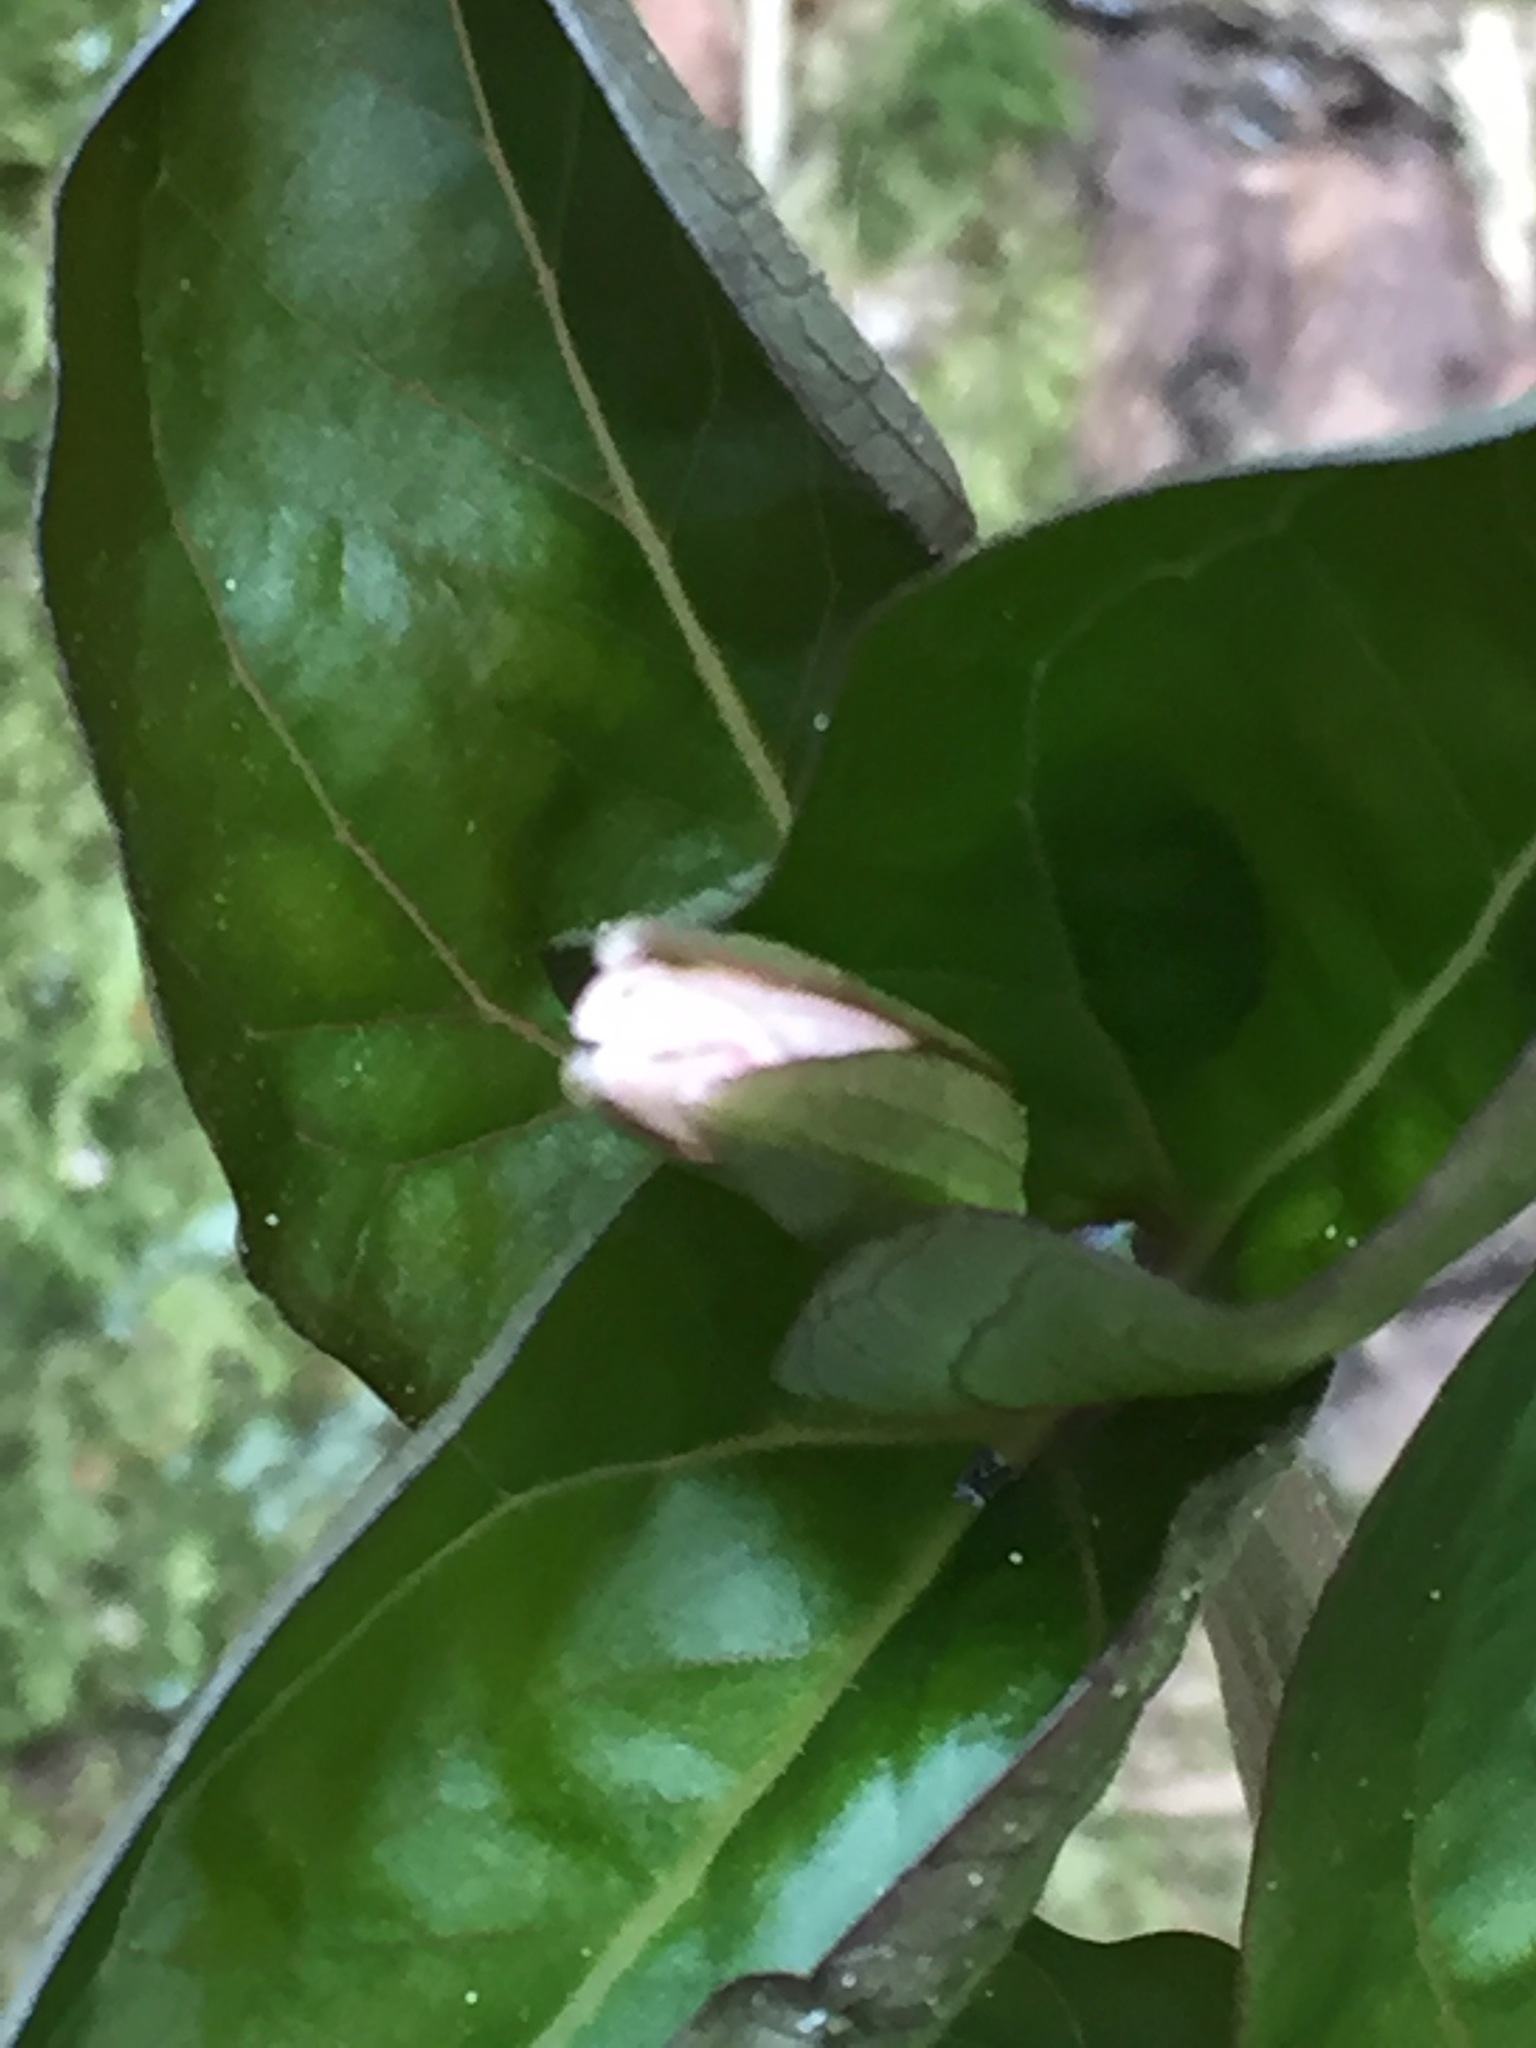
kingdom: Plantae
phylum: Tracheophyta
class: Liliopsida
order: Liliales
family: Melanthiaceae
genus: Trillium
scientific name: Trillium undulatum
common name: Paint trillium
